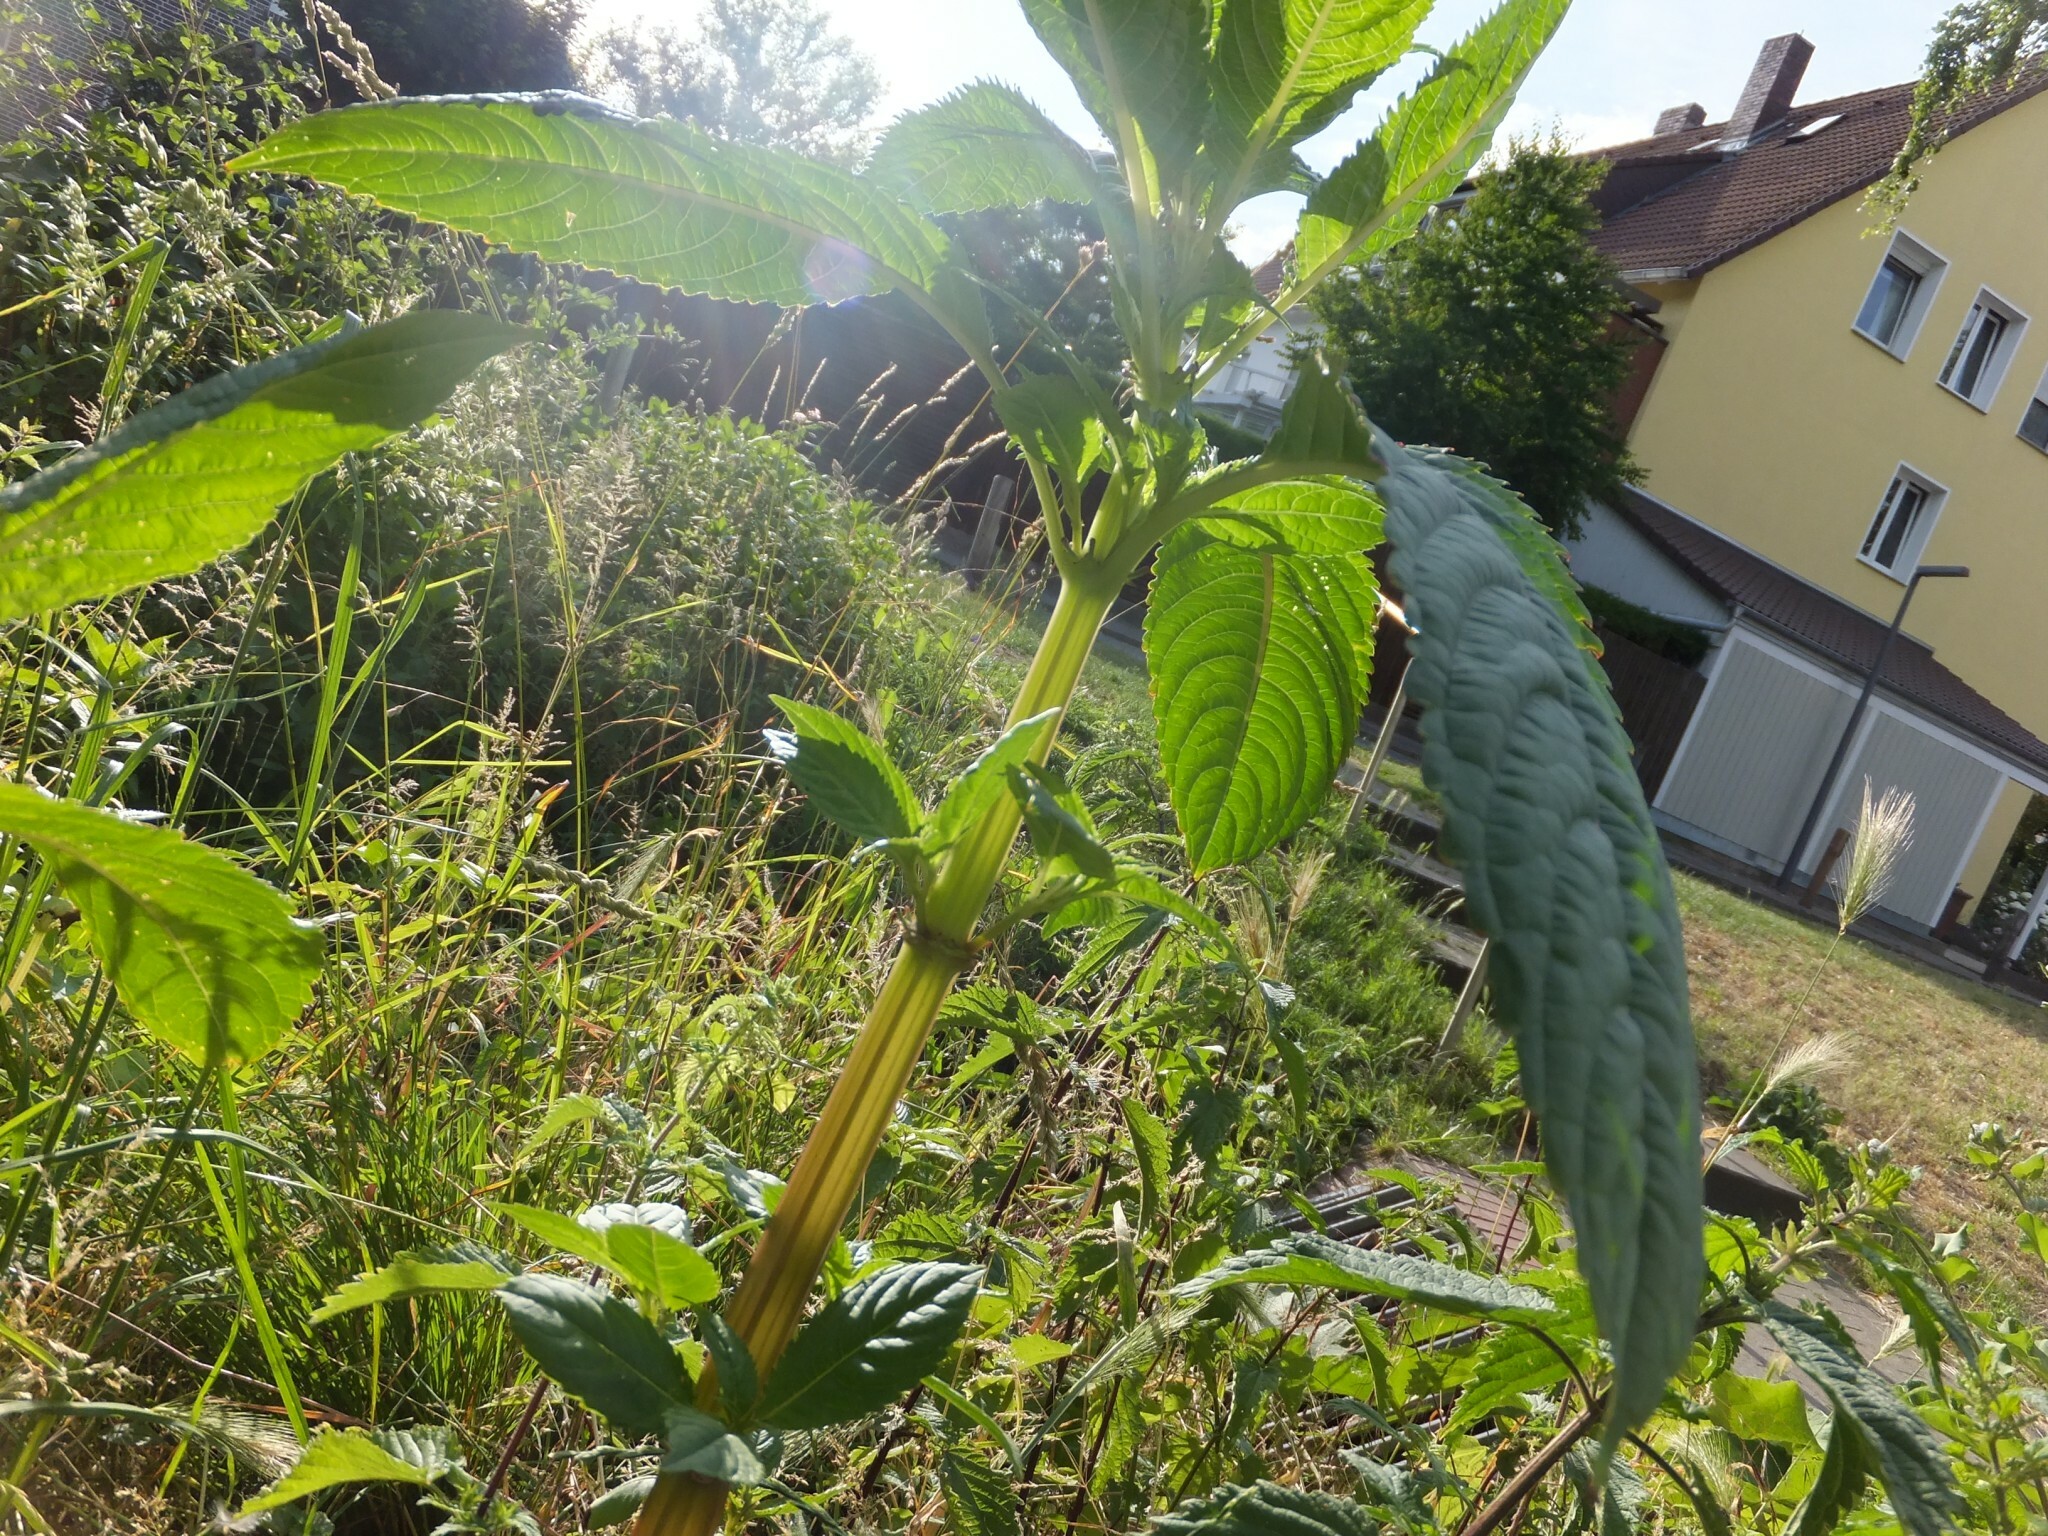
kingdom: Plantae
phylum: Tracheophyta
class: Magnoliopsida
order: Ericales
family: Balsaminaceae
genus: Impatiens
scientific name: Impatiens glandulifera
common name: Himalayan balsam
